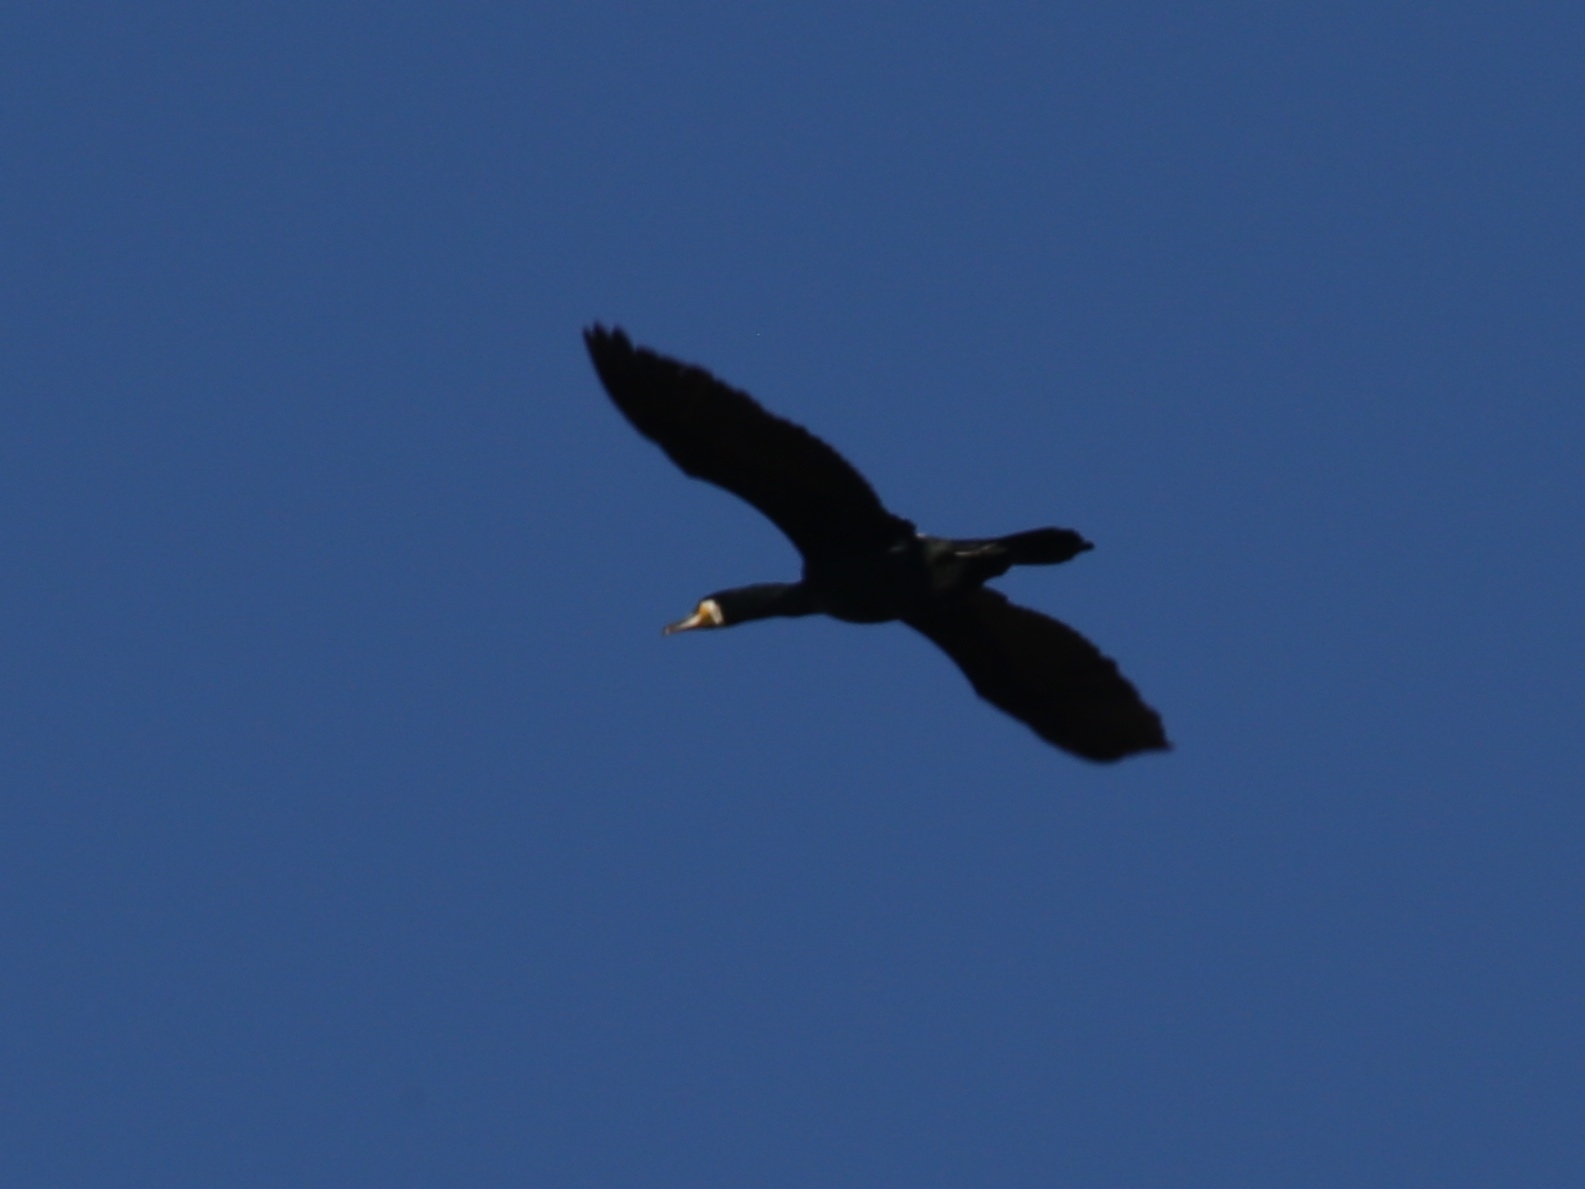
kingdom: Animalia
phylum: Chordata
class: Aves
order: Suliformes
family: Phalacrocoracidae
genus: Phalacrocorax
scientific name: Phalacrocorax carbo
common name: Great cormorant
